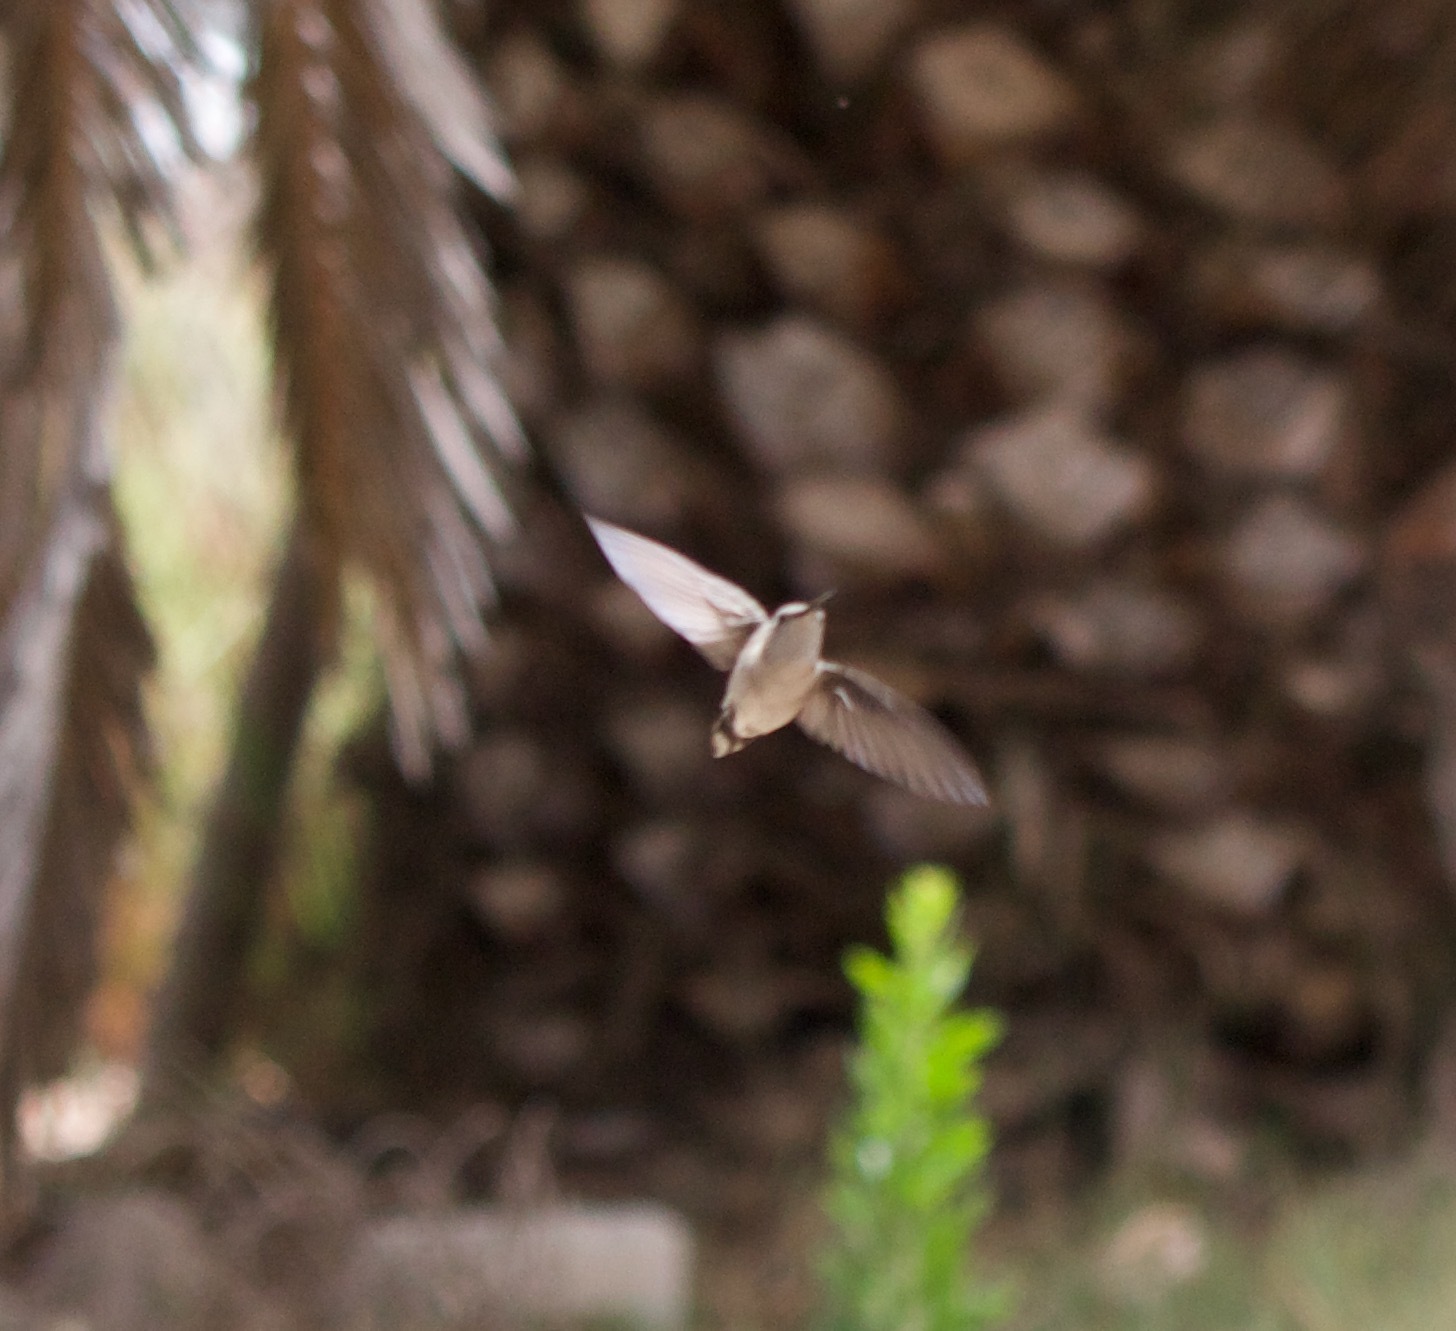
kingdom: Animalia
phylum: Chordata
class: Aves
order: Apodiformes
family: Trochilidae
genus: Rhodopis
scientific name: Rhodopis vesper
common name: Oasis hummingbird
